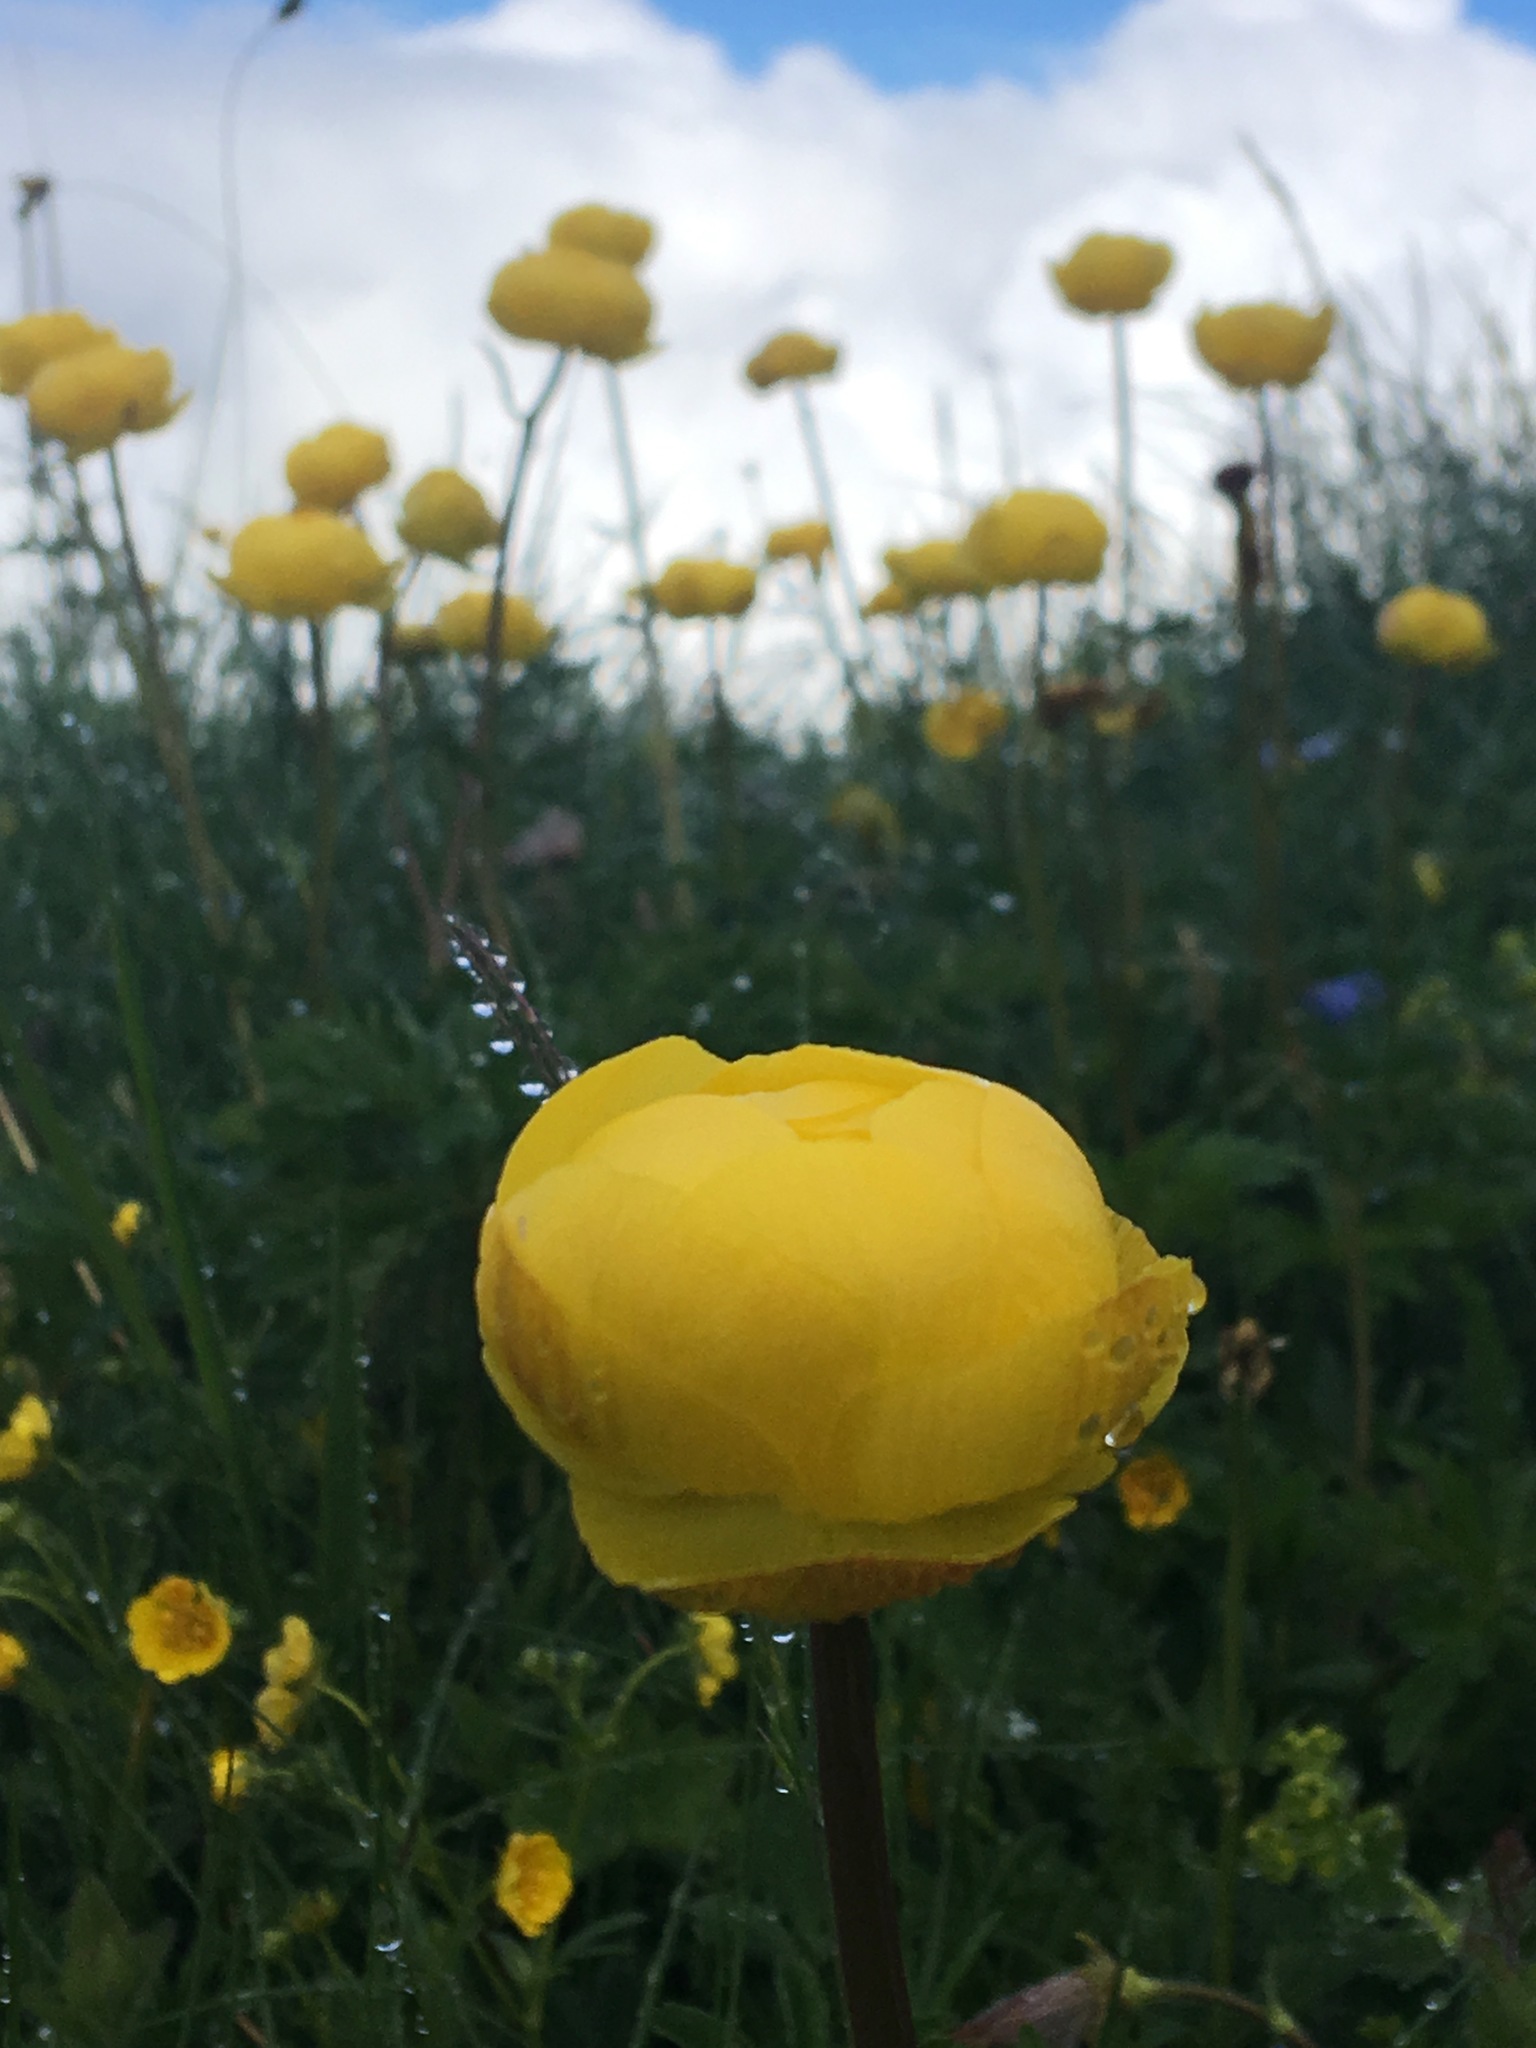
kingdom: Plantae
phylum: Tracheophyta
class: Magnoliopsida
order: Ranunculales
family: Ranunculaceae
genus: Trollius
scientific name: Trollius europaeus
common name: European globeflower
